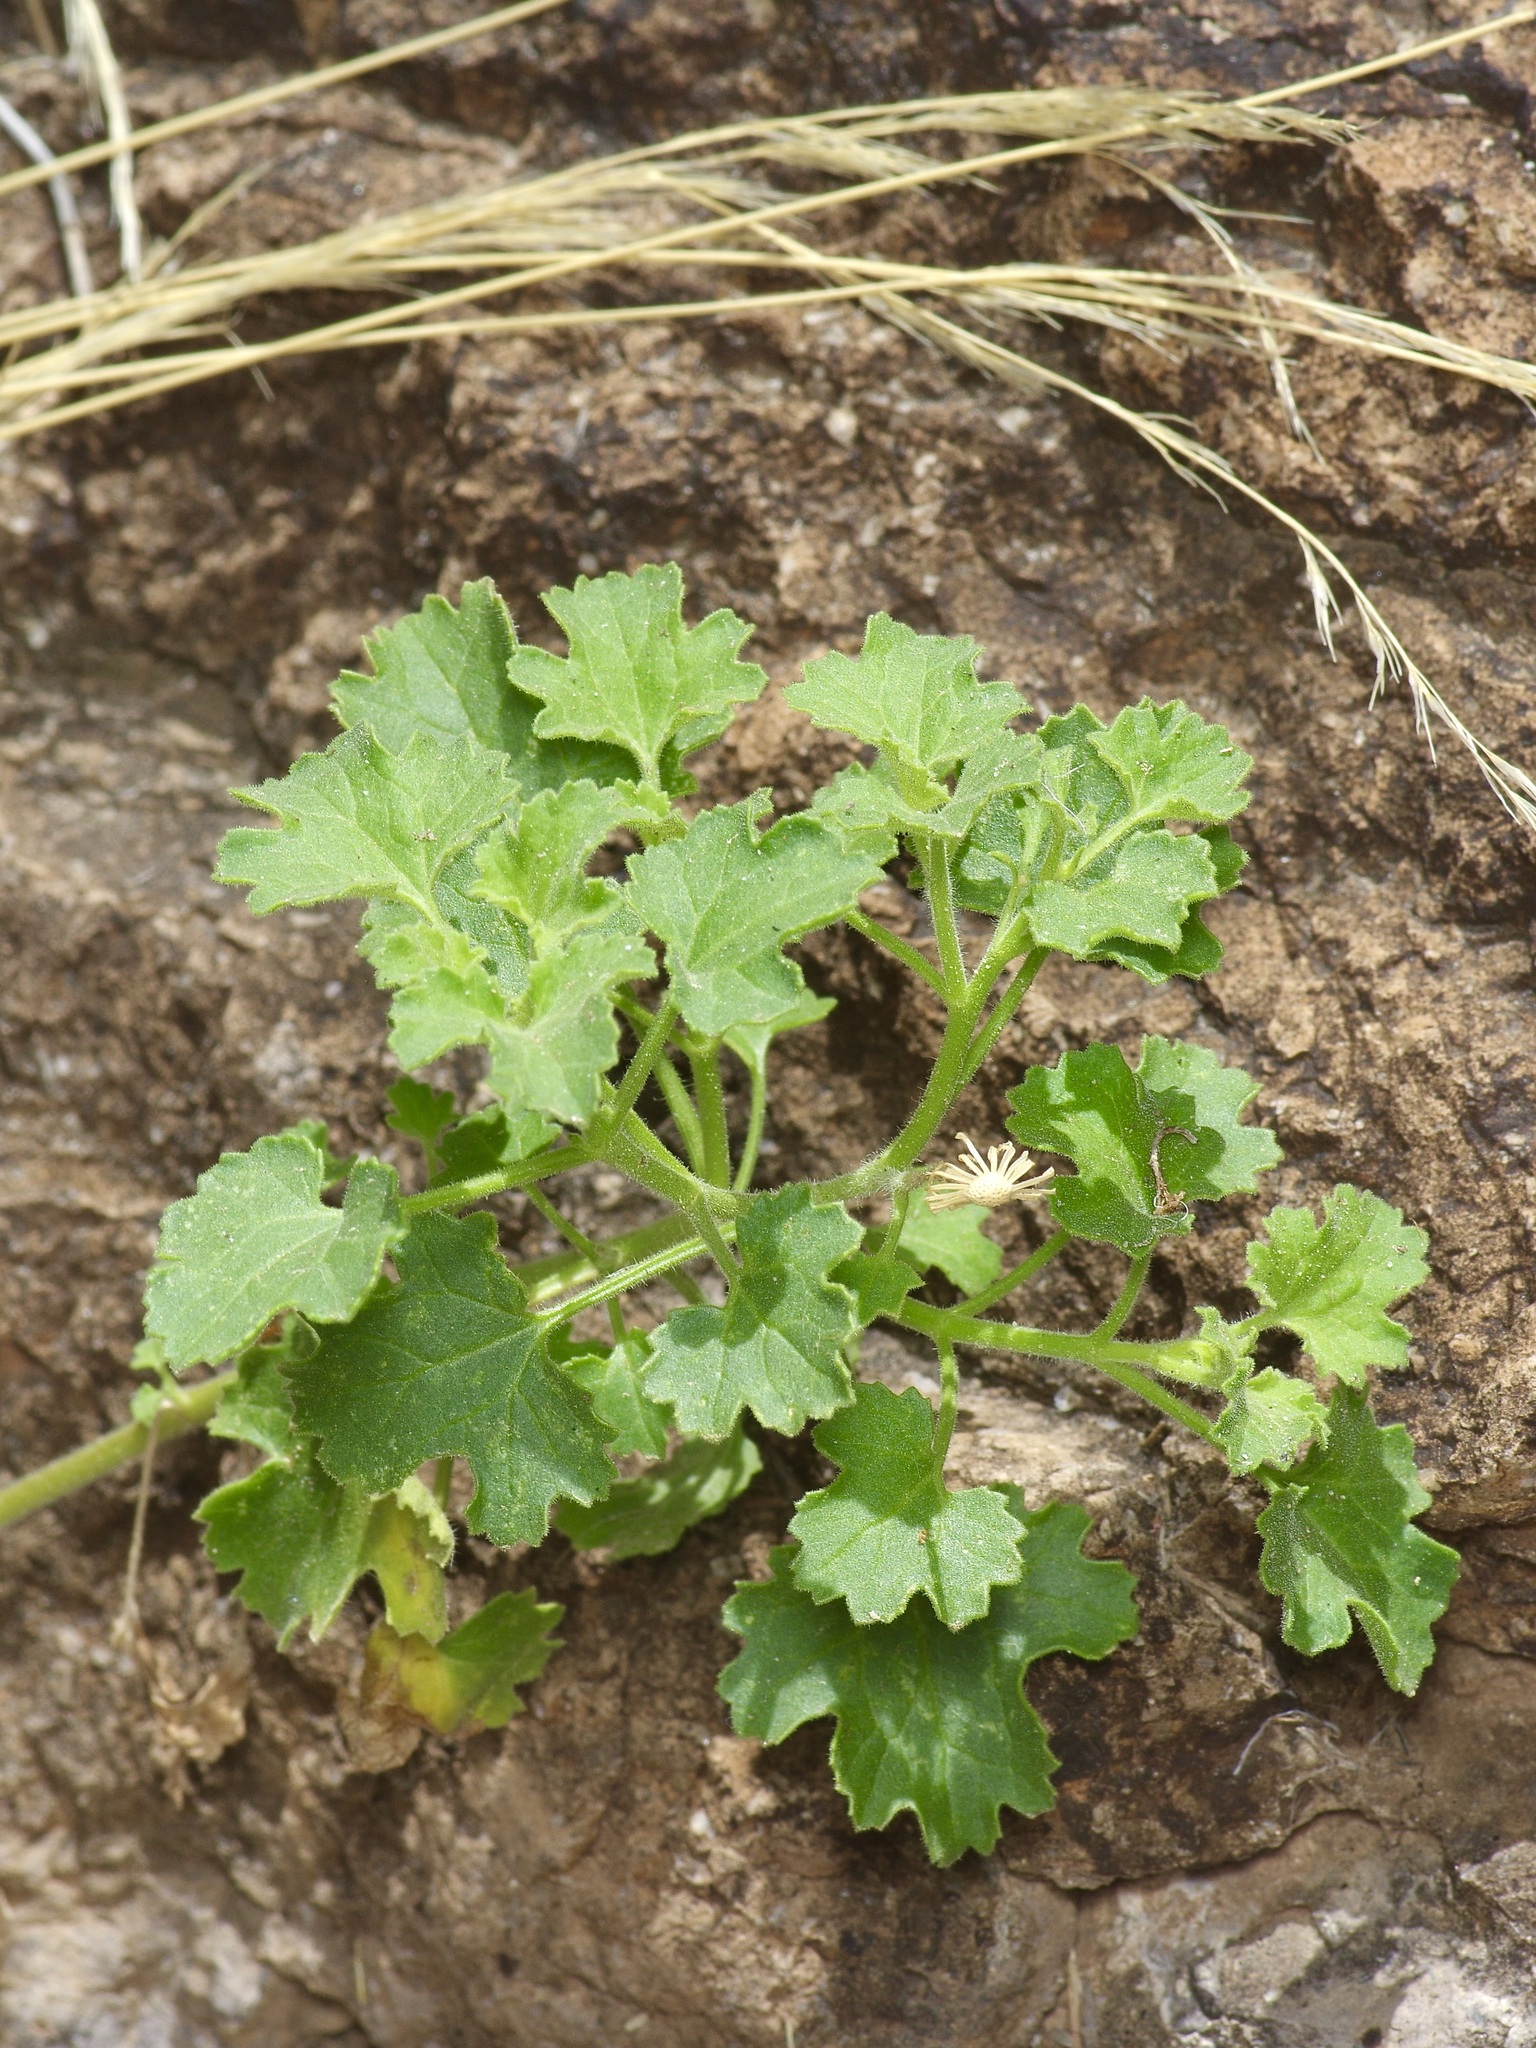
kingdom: Plantae
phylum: Tracheophyta
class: Magnoliopsida
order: Asterales
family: Asteraceae
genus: Laphamia
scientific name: Laphamia parryi
